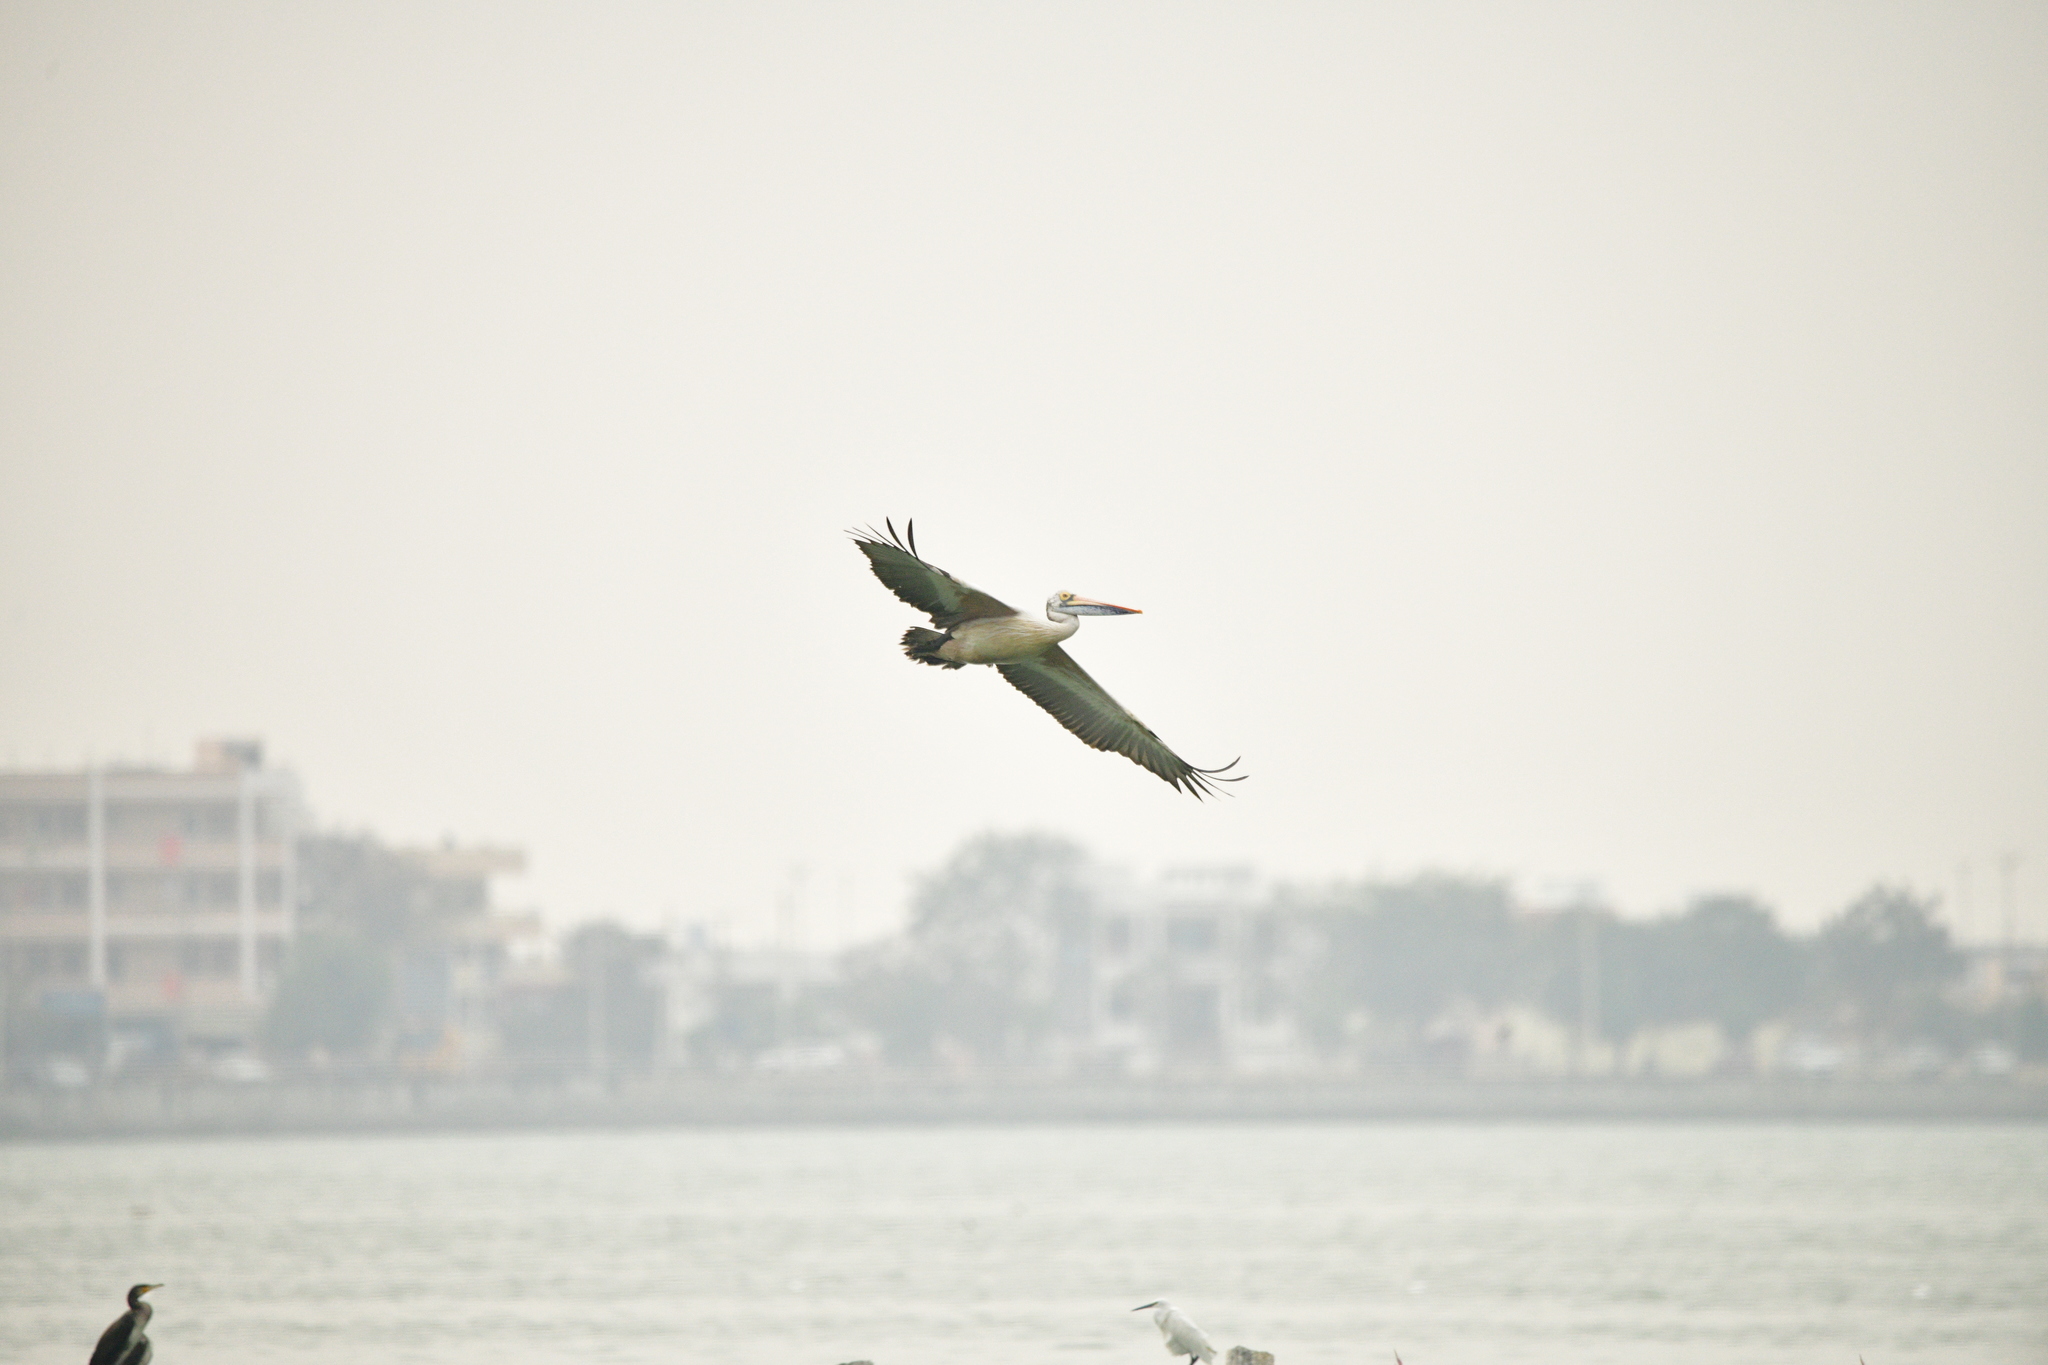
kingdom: Animalia
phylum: Chordata
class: Aves
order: Pelecaniformes
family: Pelecanidae
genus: Pelecanus
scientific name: Pelecanus philippensis
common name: Spot-billed pelican
